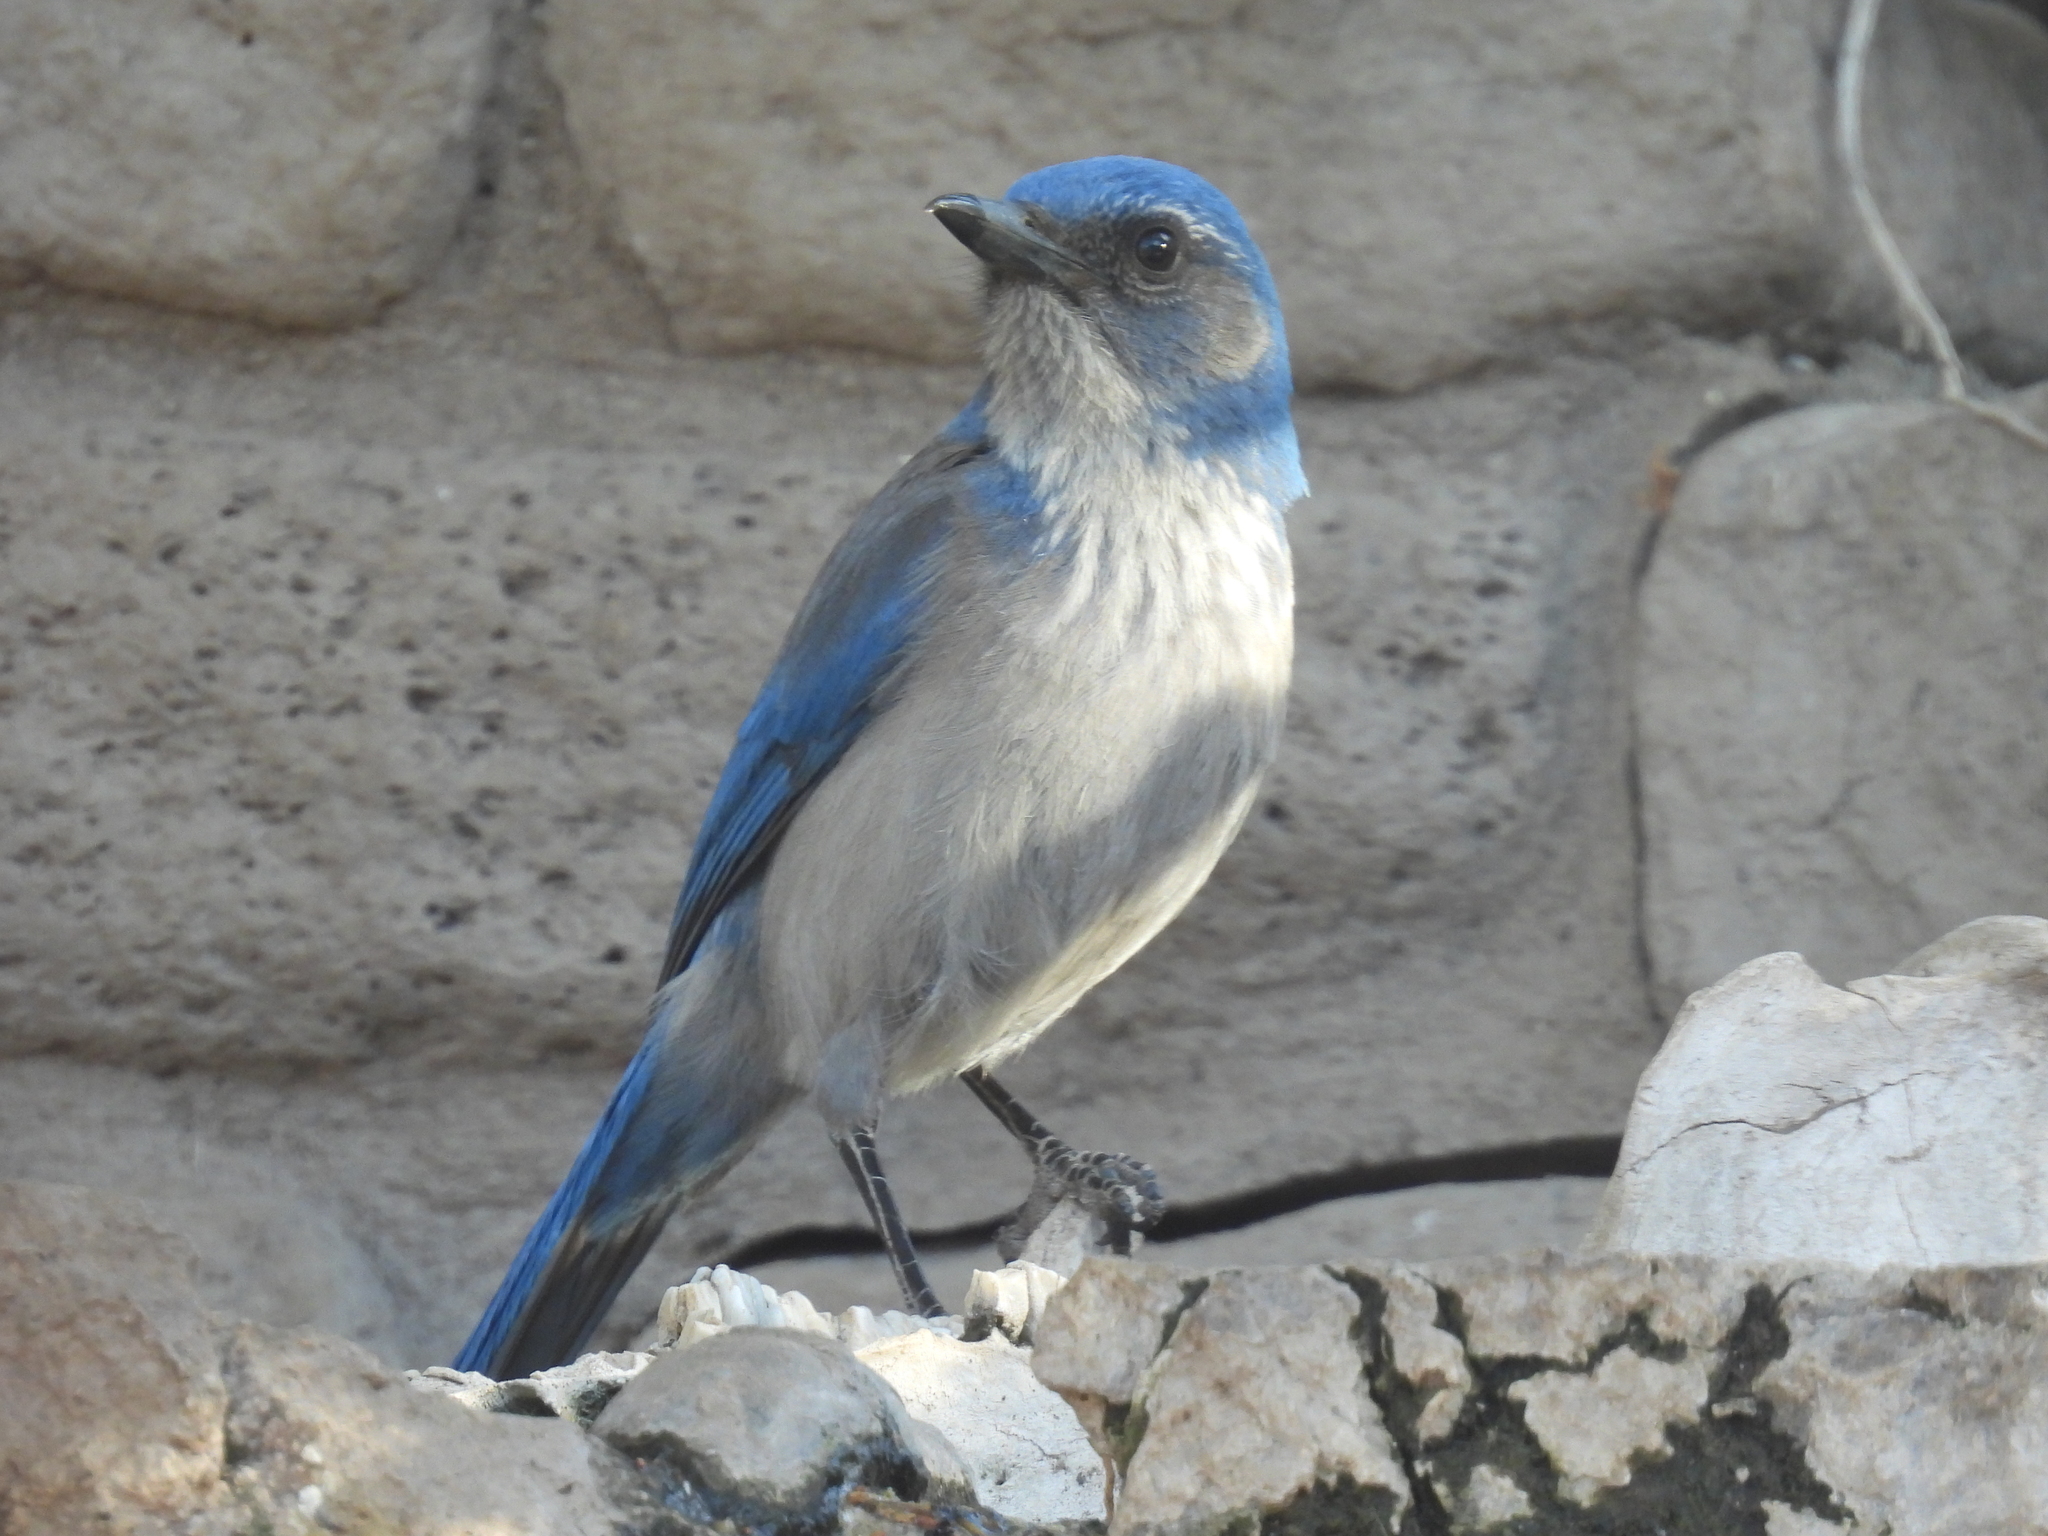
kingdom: Animalia
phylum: Chordata
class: Aves
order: Passeriformes
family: Corvidae
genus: Aphelocoma
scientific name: Aphelocoma woodhouseii
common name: Woodhouse's scrub-jay
